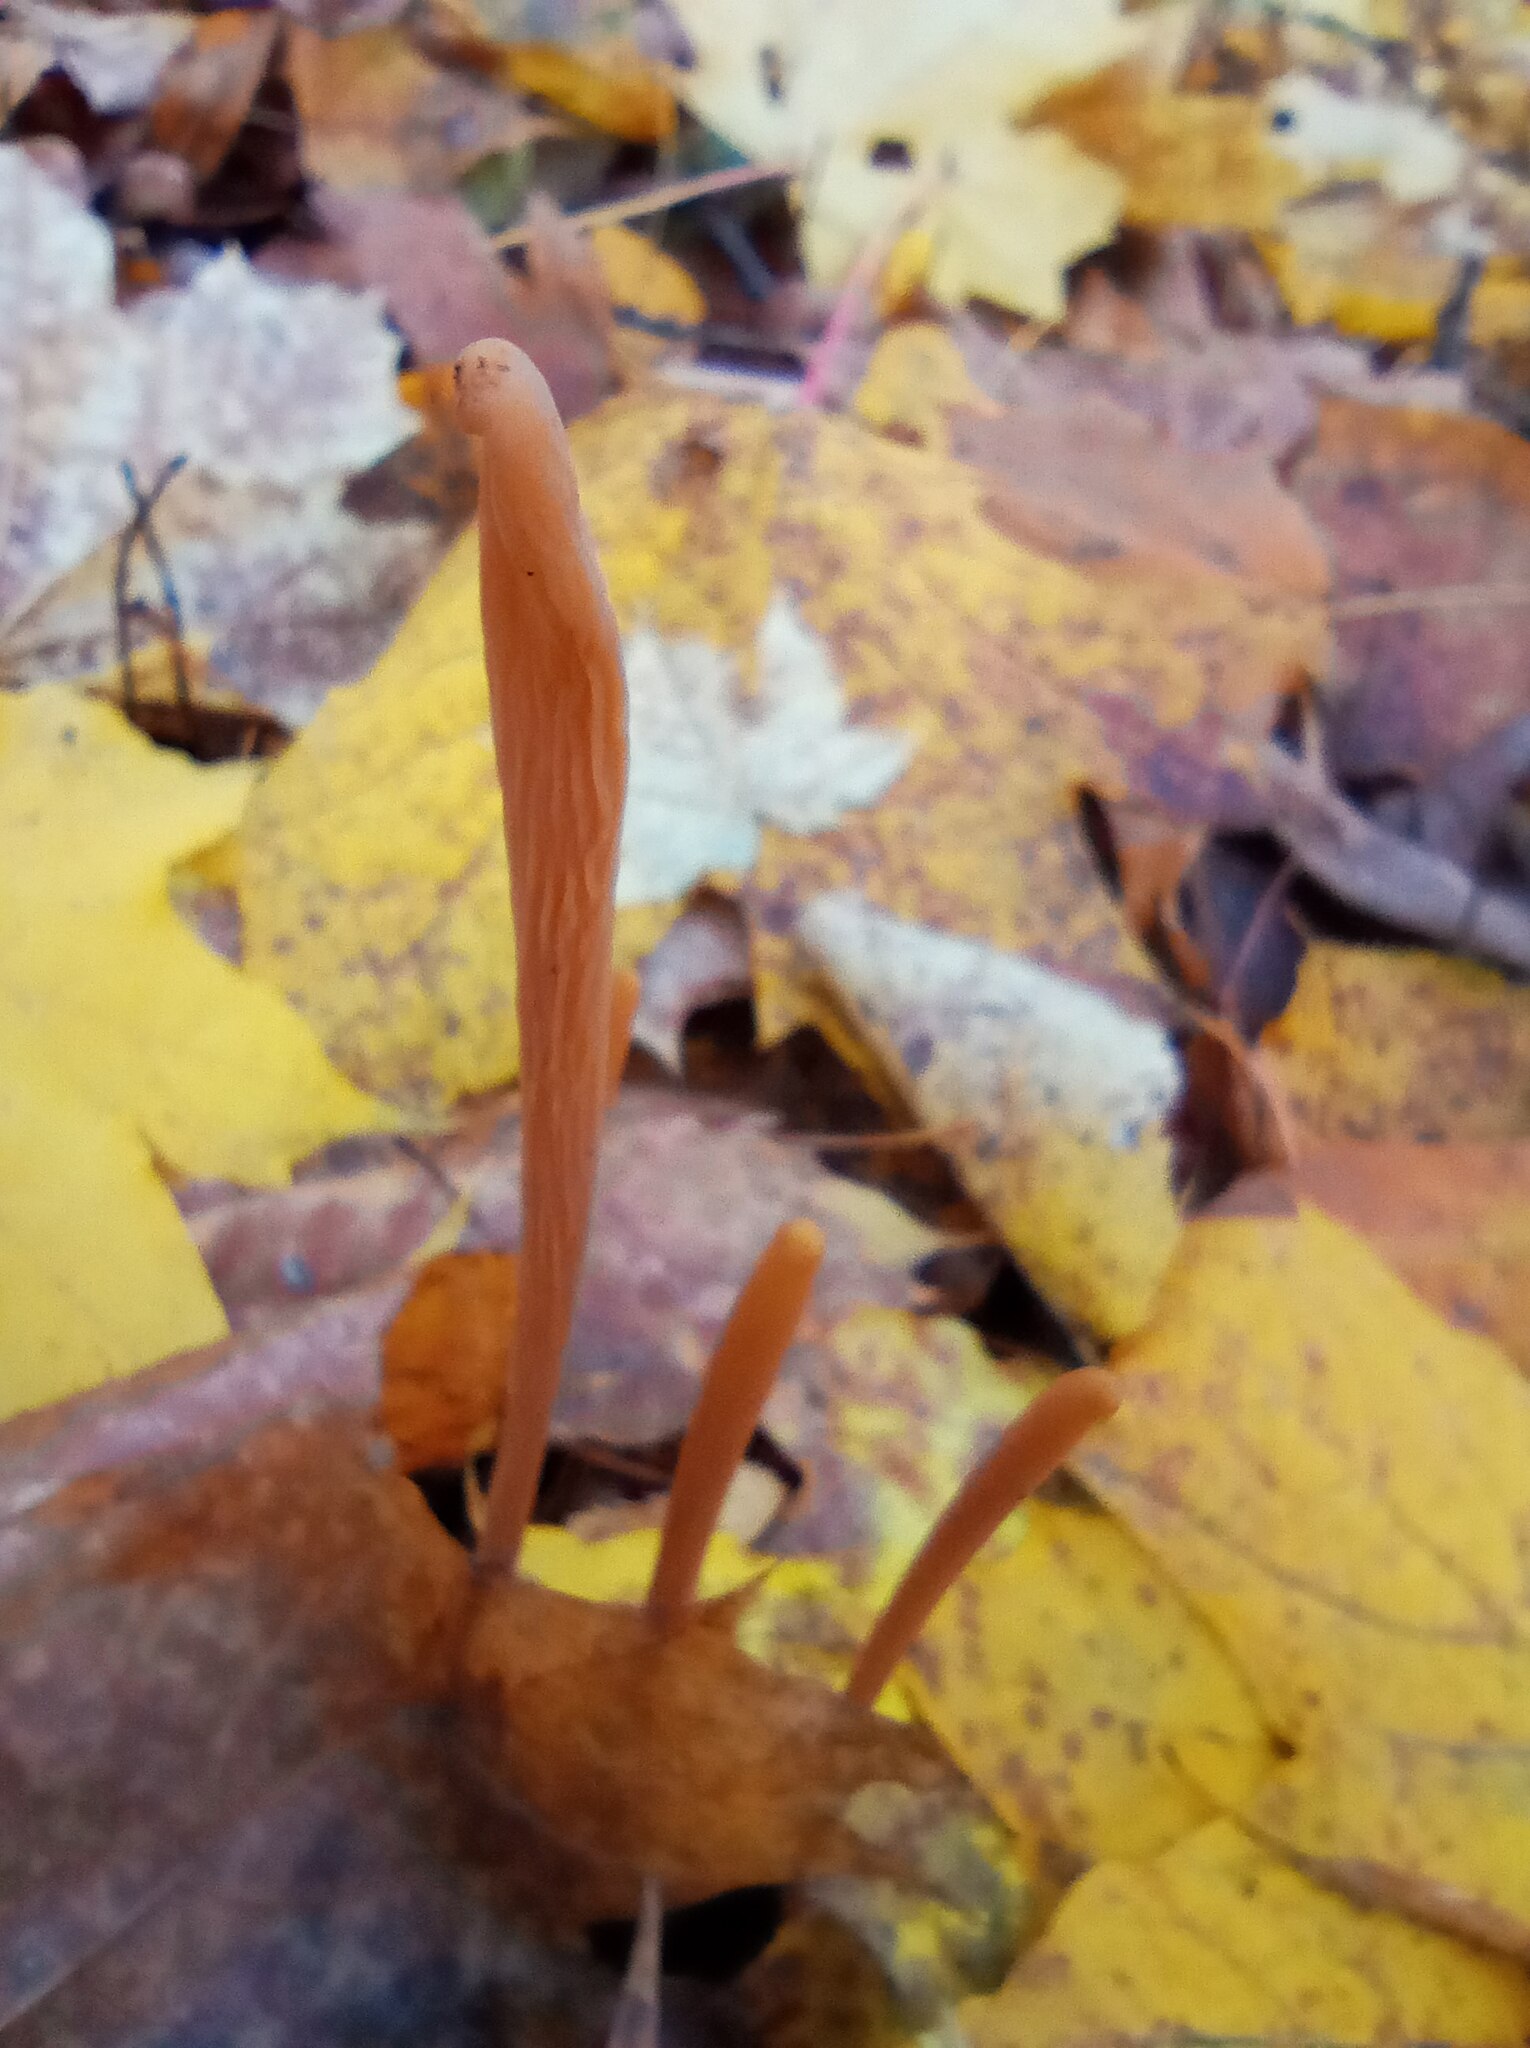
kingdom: Fungi
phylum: Basidiomycota
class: Agaricomycetes
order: Agaricales
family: Typhulaceae
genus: Typhula
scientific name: Typhula fistulosa
